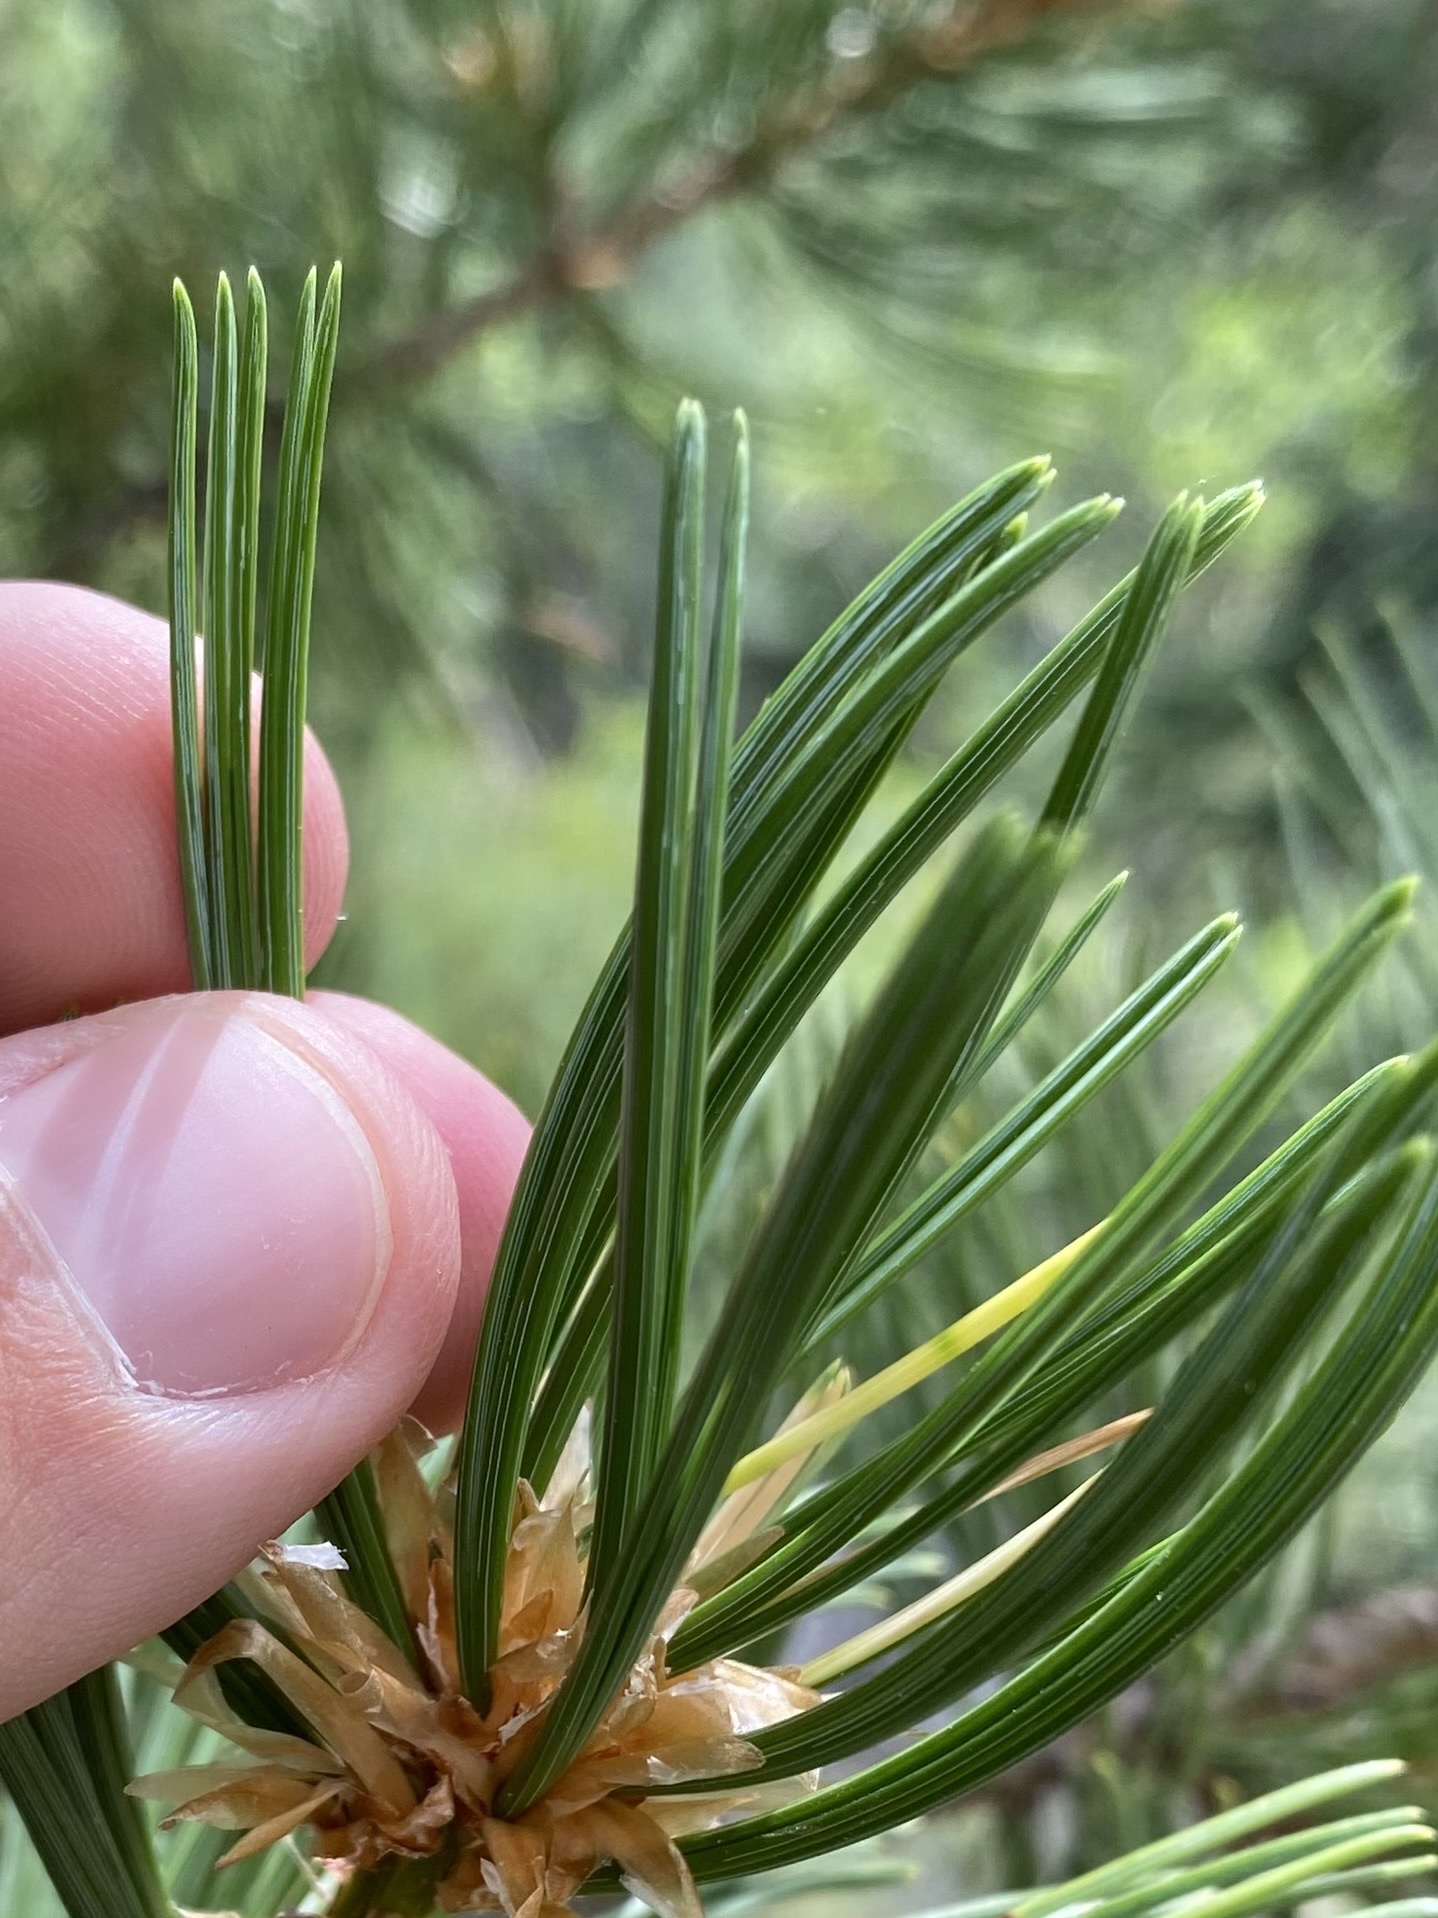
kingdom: Plantae
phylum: Tracheophyta
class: Pinopsida
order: Pinales
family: Pinaceae
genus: Pinus
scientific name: Pinus flexilis
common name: Limber pine
